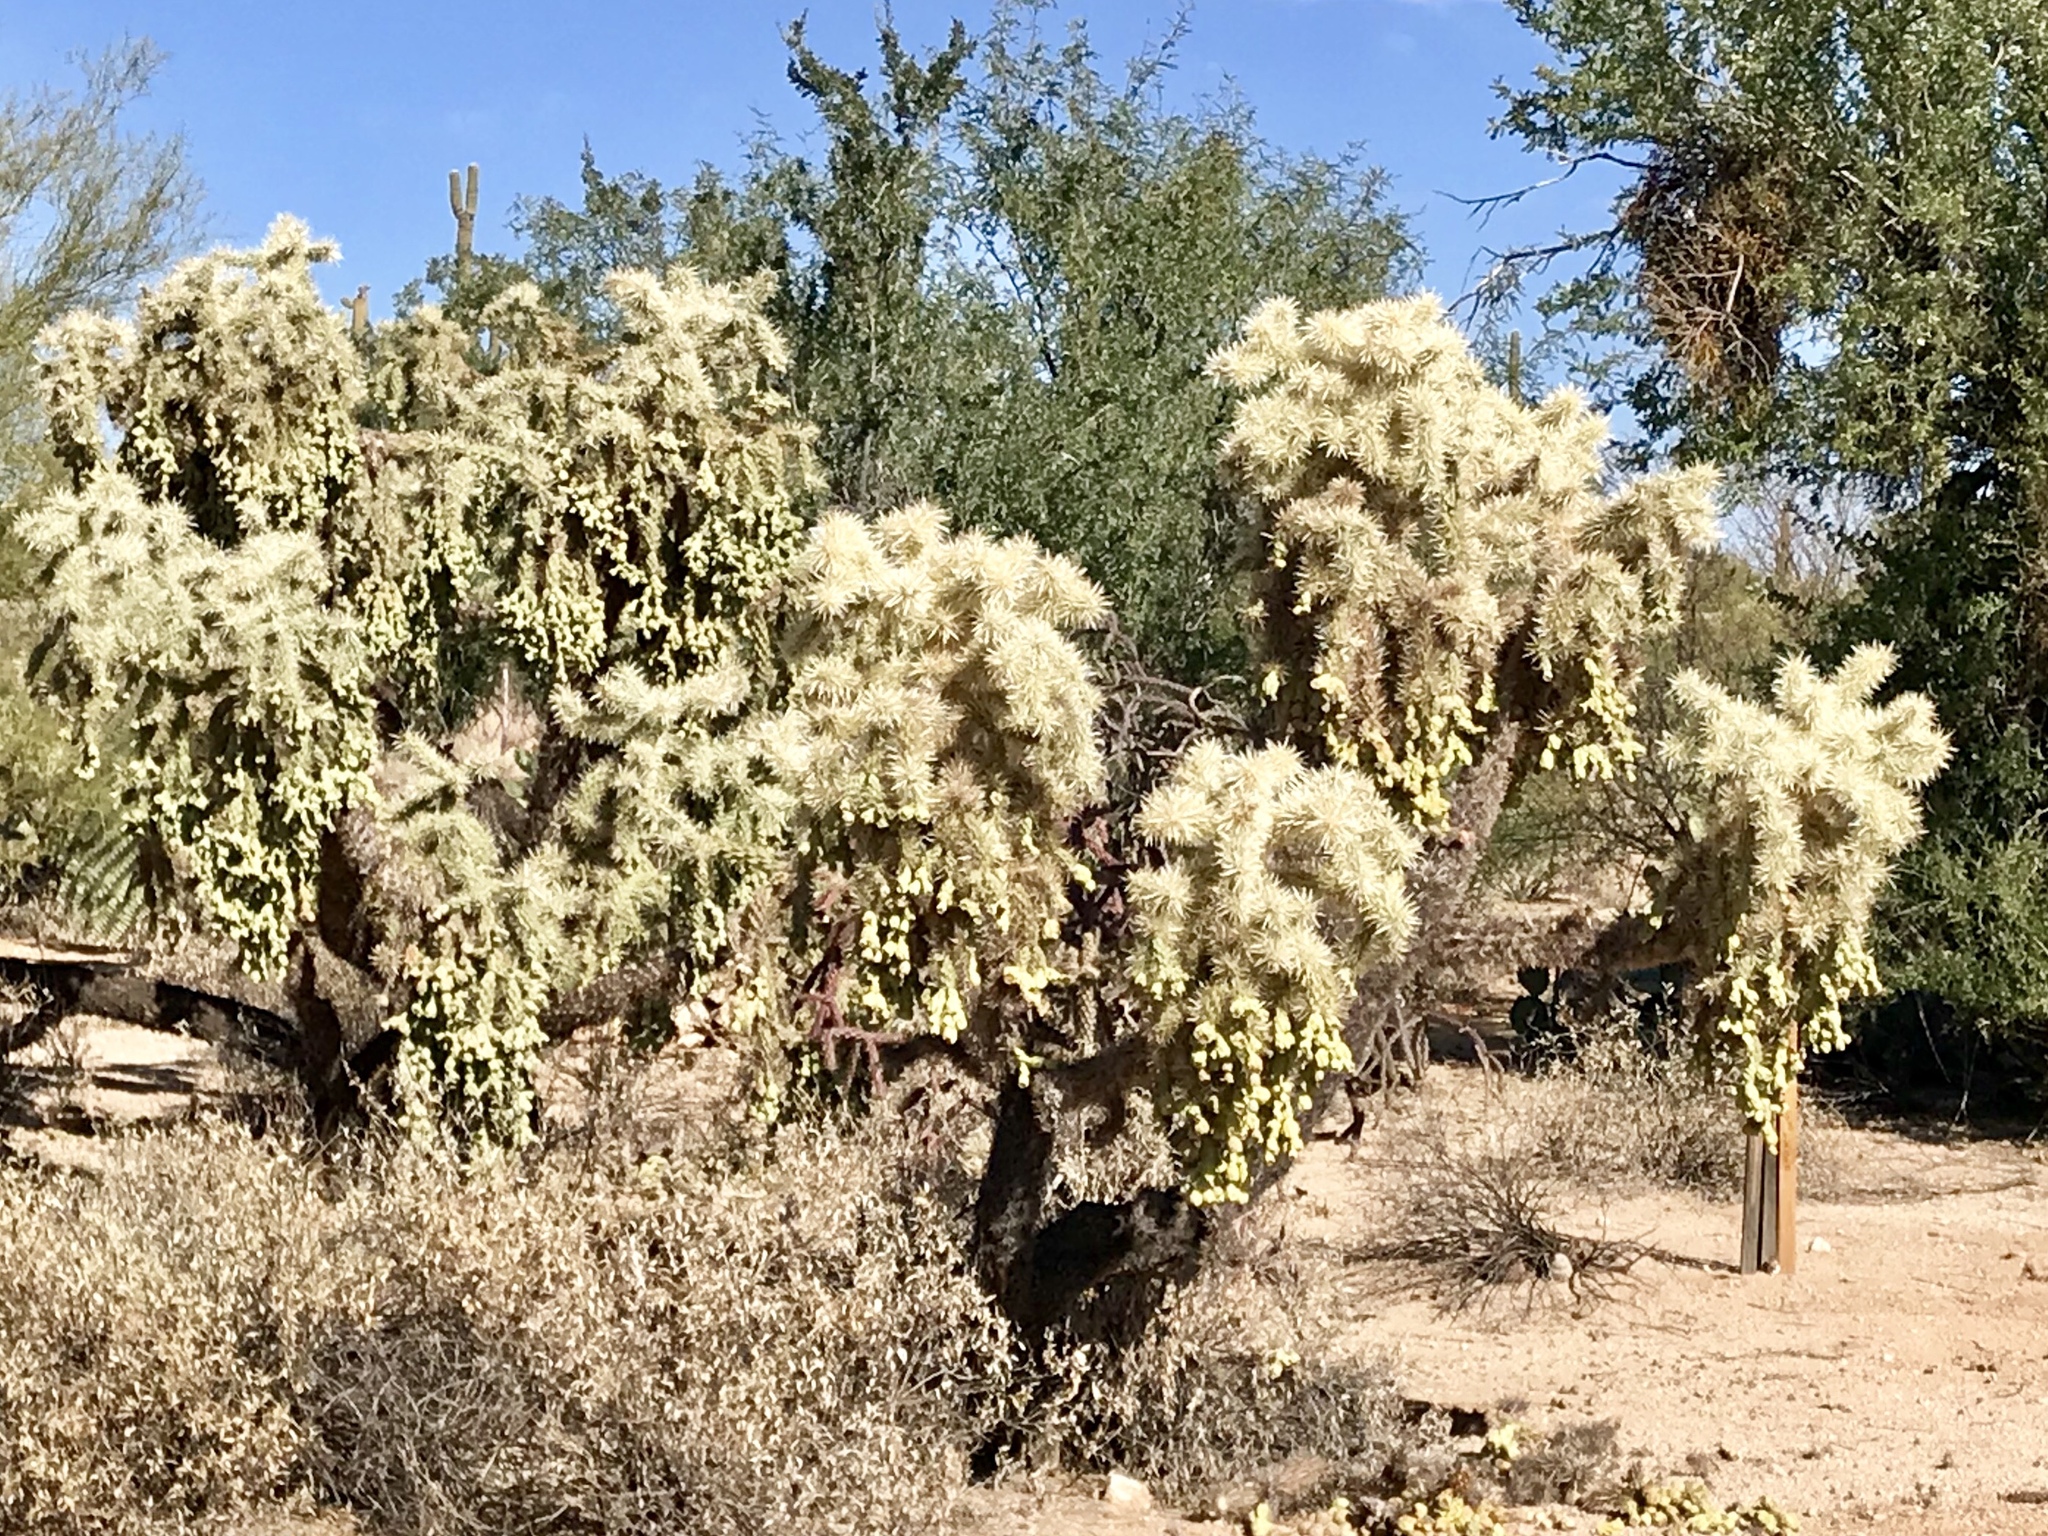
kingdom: Plantae
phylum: Tracheophyta
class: Magnoliopsida
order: Caryophyllales
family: Cactaceae
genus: Cylindropuntia
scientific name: Cylindropuntia fulgida
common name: Jumping cholla
